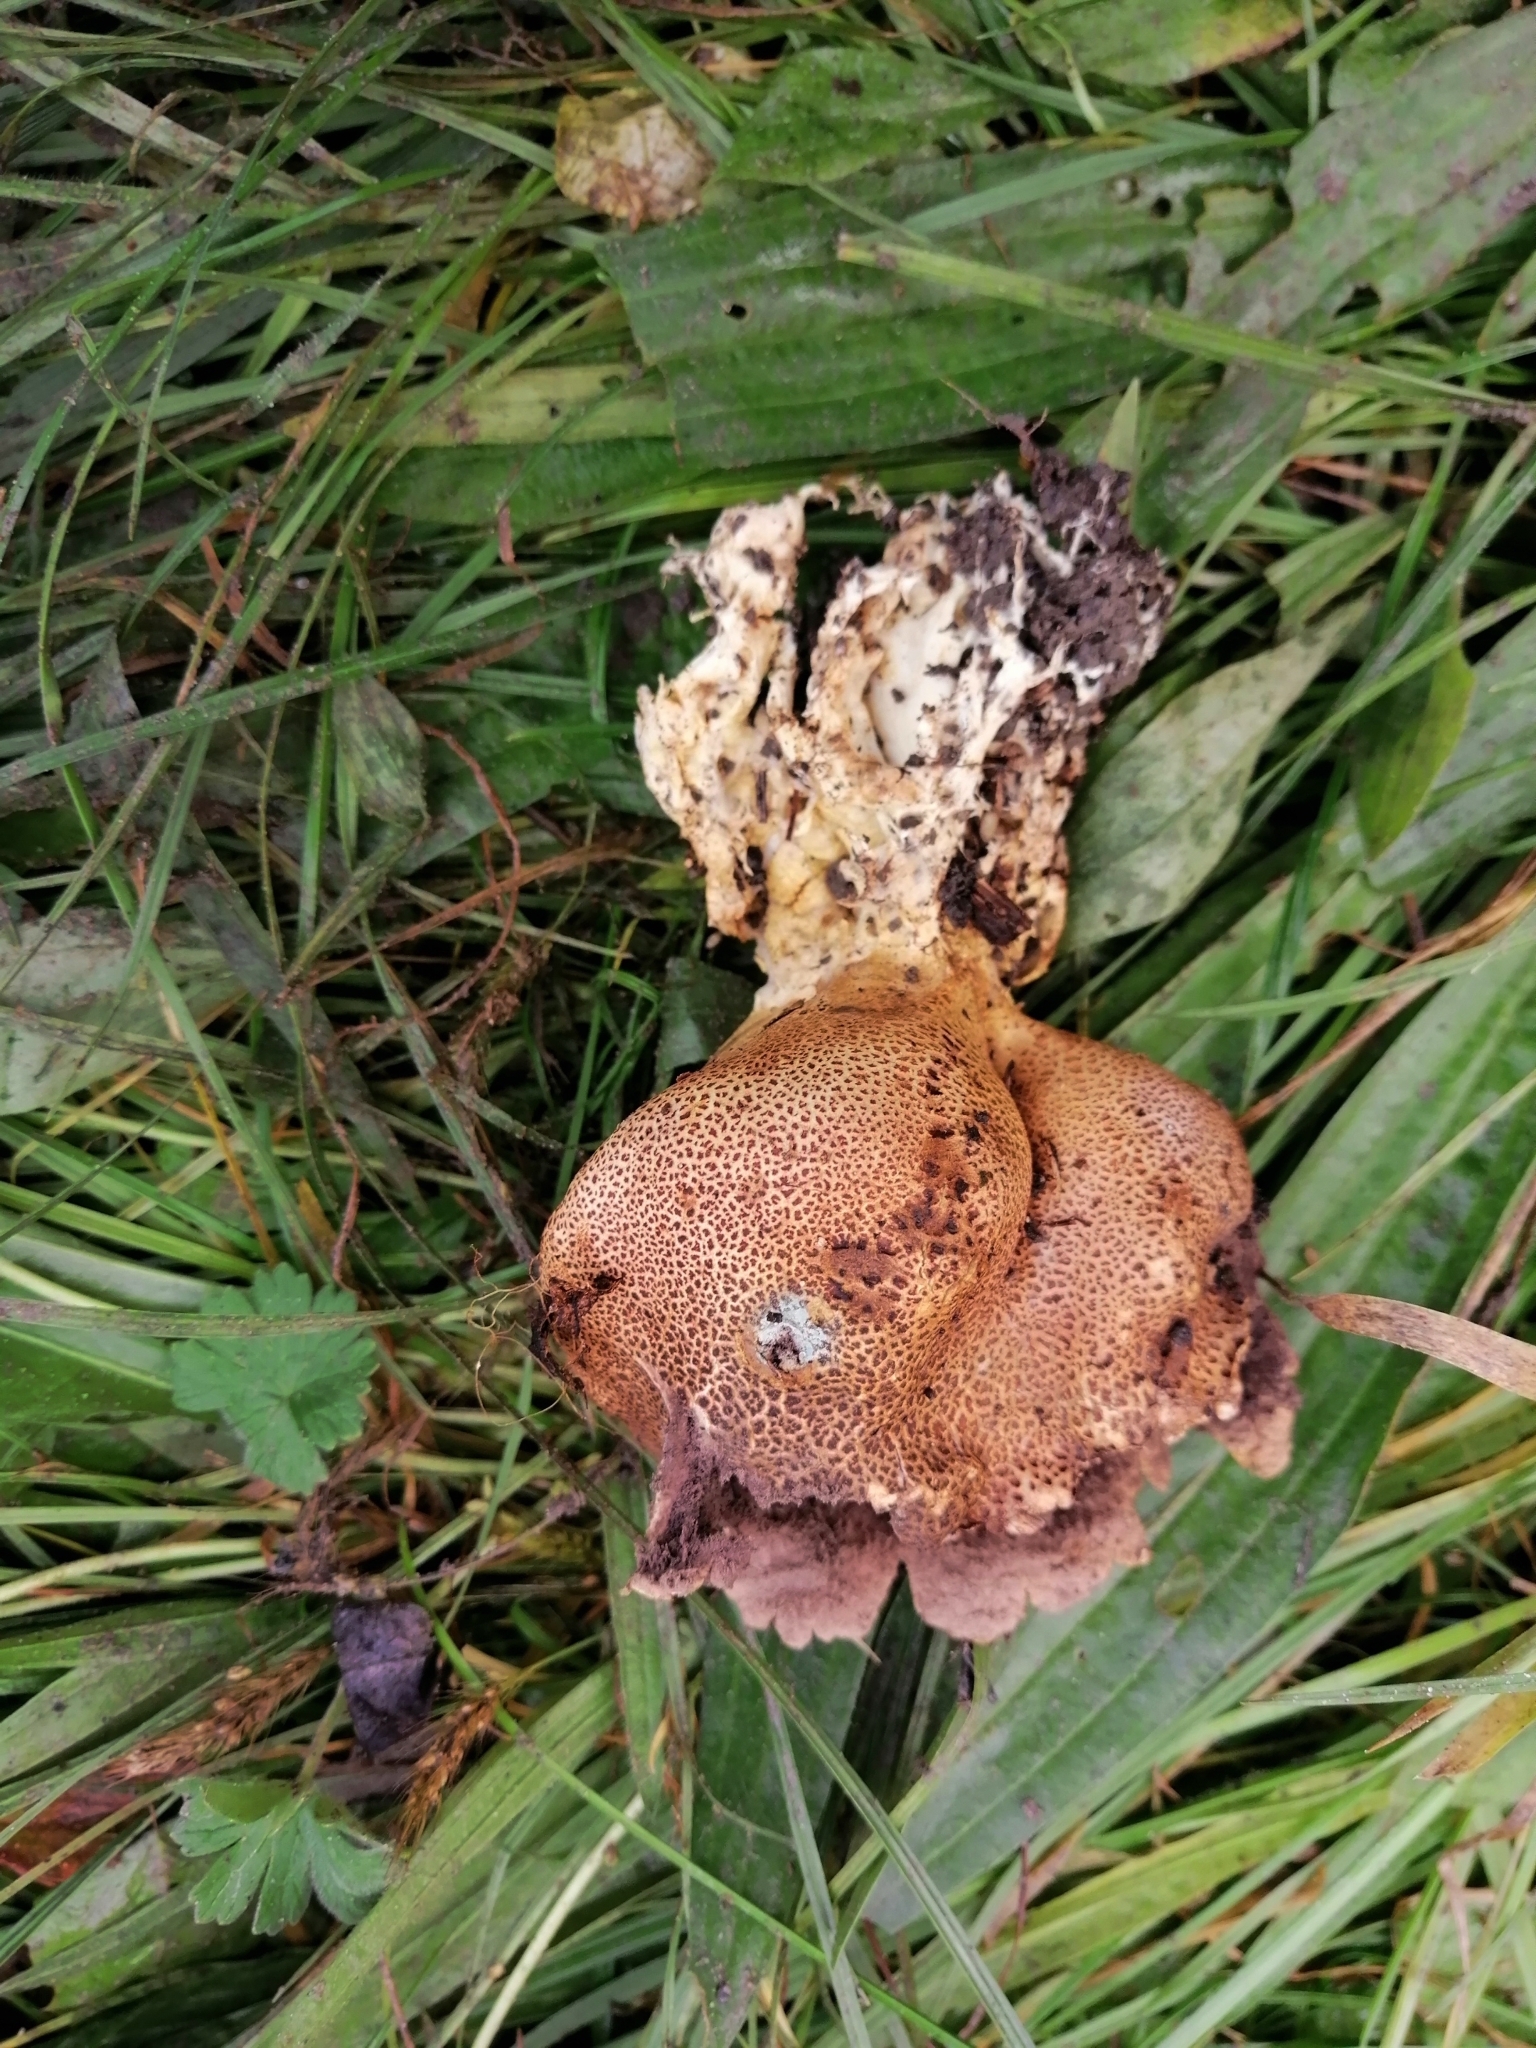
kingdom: Fungi
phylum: Basidiomycota
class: Agaricomycetes
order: Boletales
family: Sclerodermataceae
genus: Scleroderma
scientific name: Scleroderma verrucosum
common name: Scaly earthball
